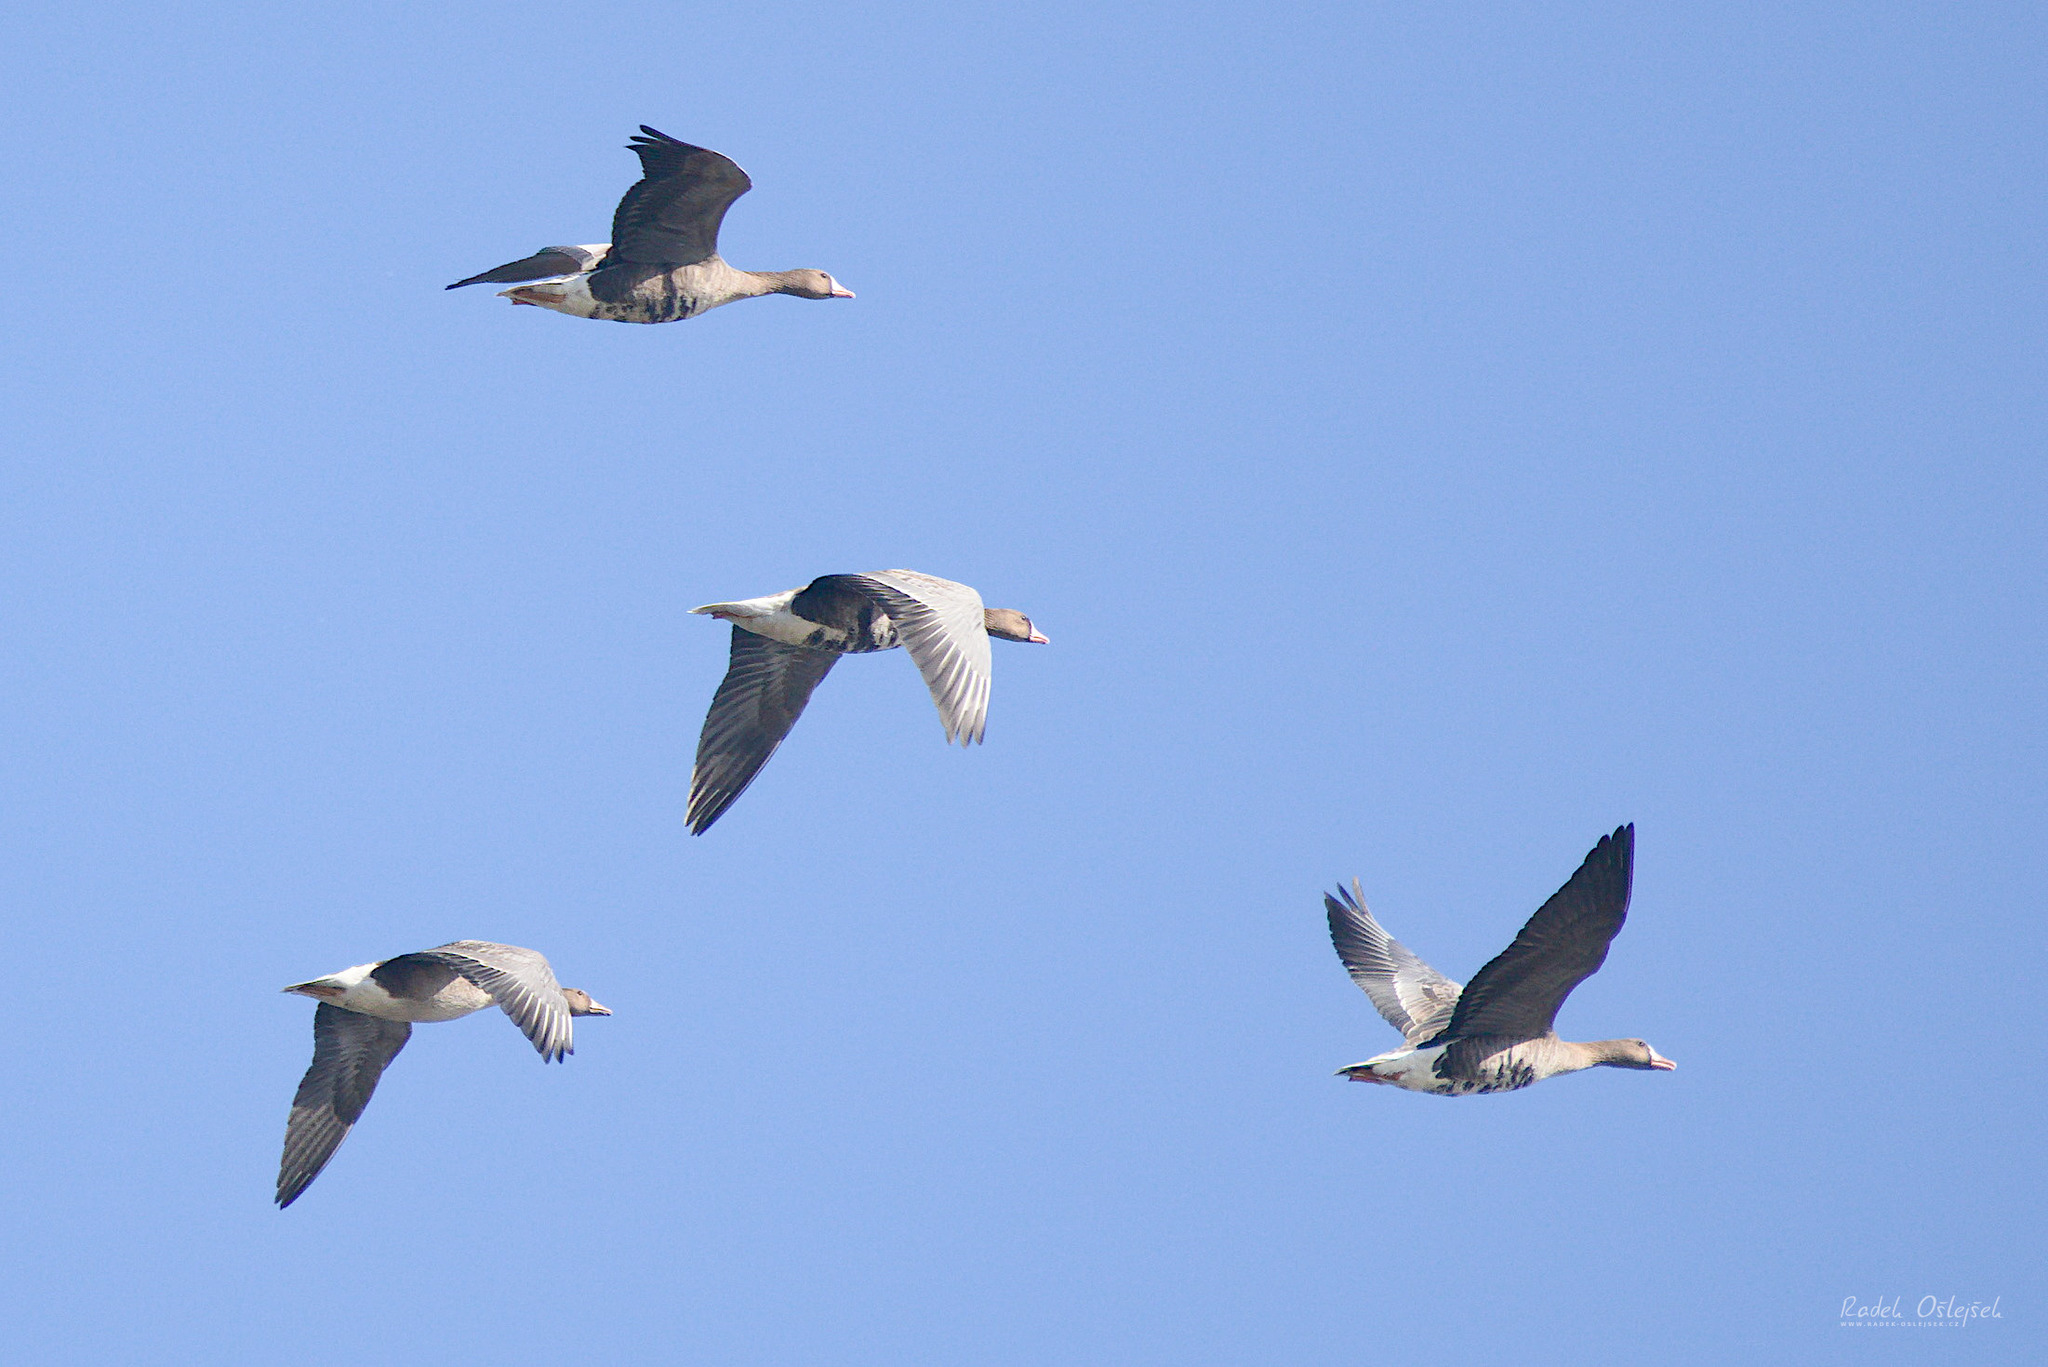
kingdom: Animalia
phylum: Chordata
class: Aves
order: Anseriformes
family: Anatidae
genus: Anser
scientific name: Anser albifrons
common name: Greater white-fronted goose
